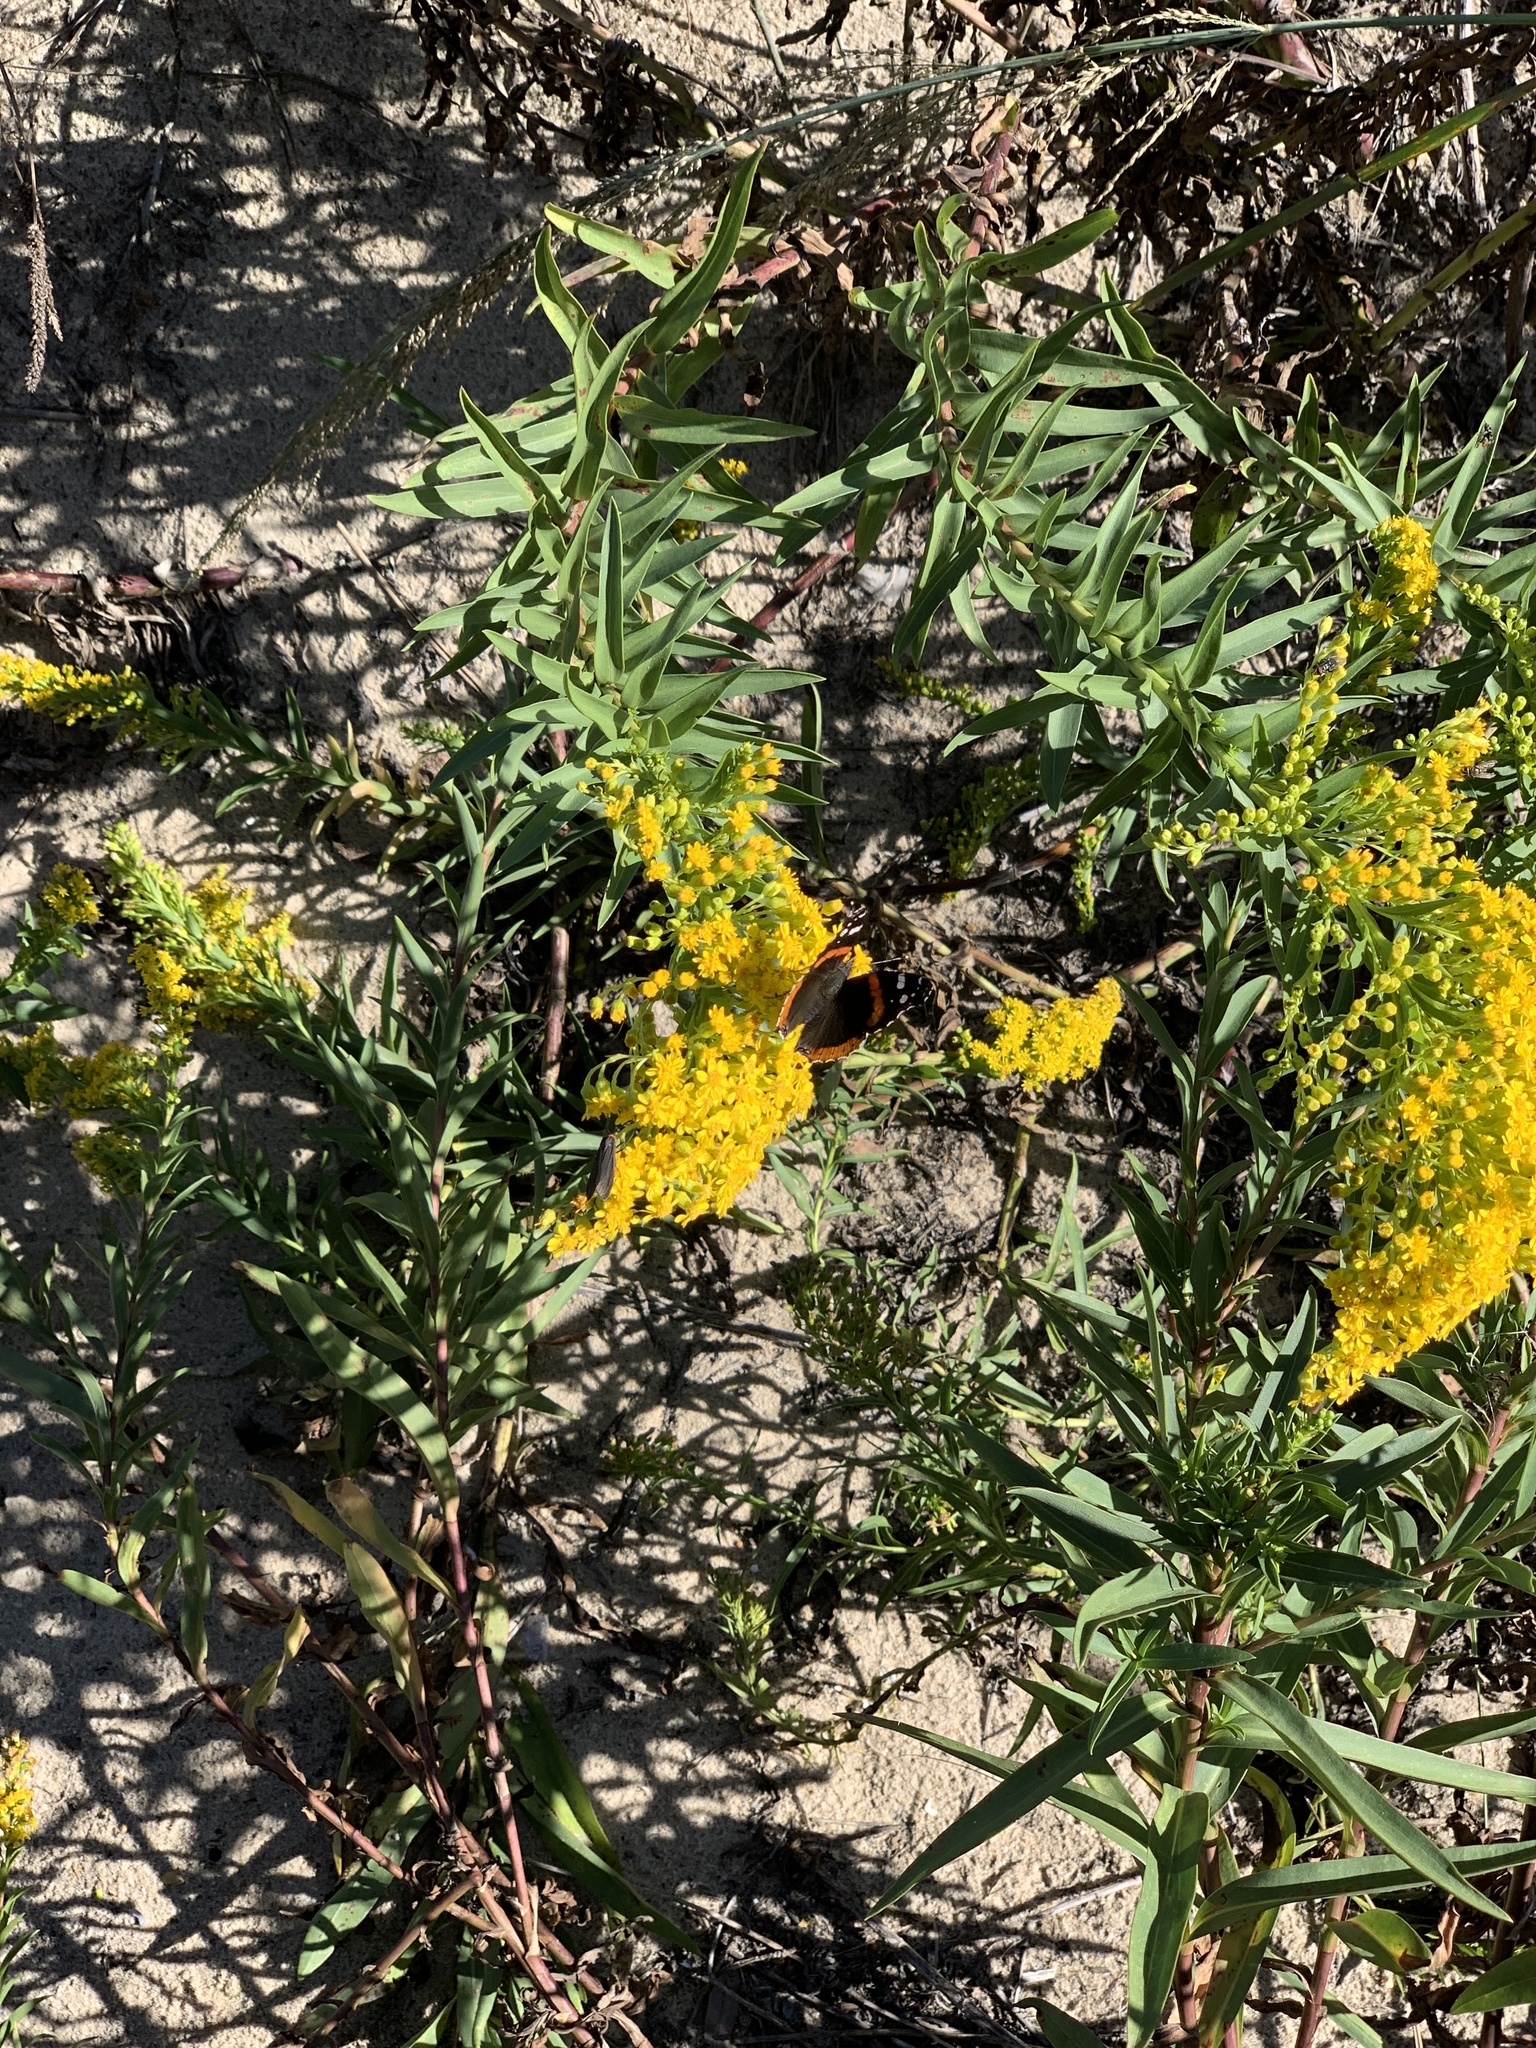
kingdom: Animalia
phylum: Arthropoda
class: Insecta
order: Lepidoptera
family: Nymphalidae
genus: Vanessa
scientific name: Vanessa atalanta
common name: Red admiral
